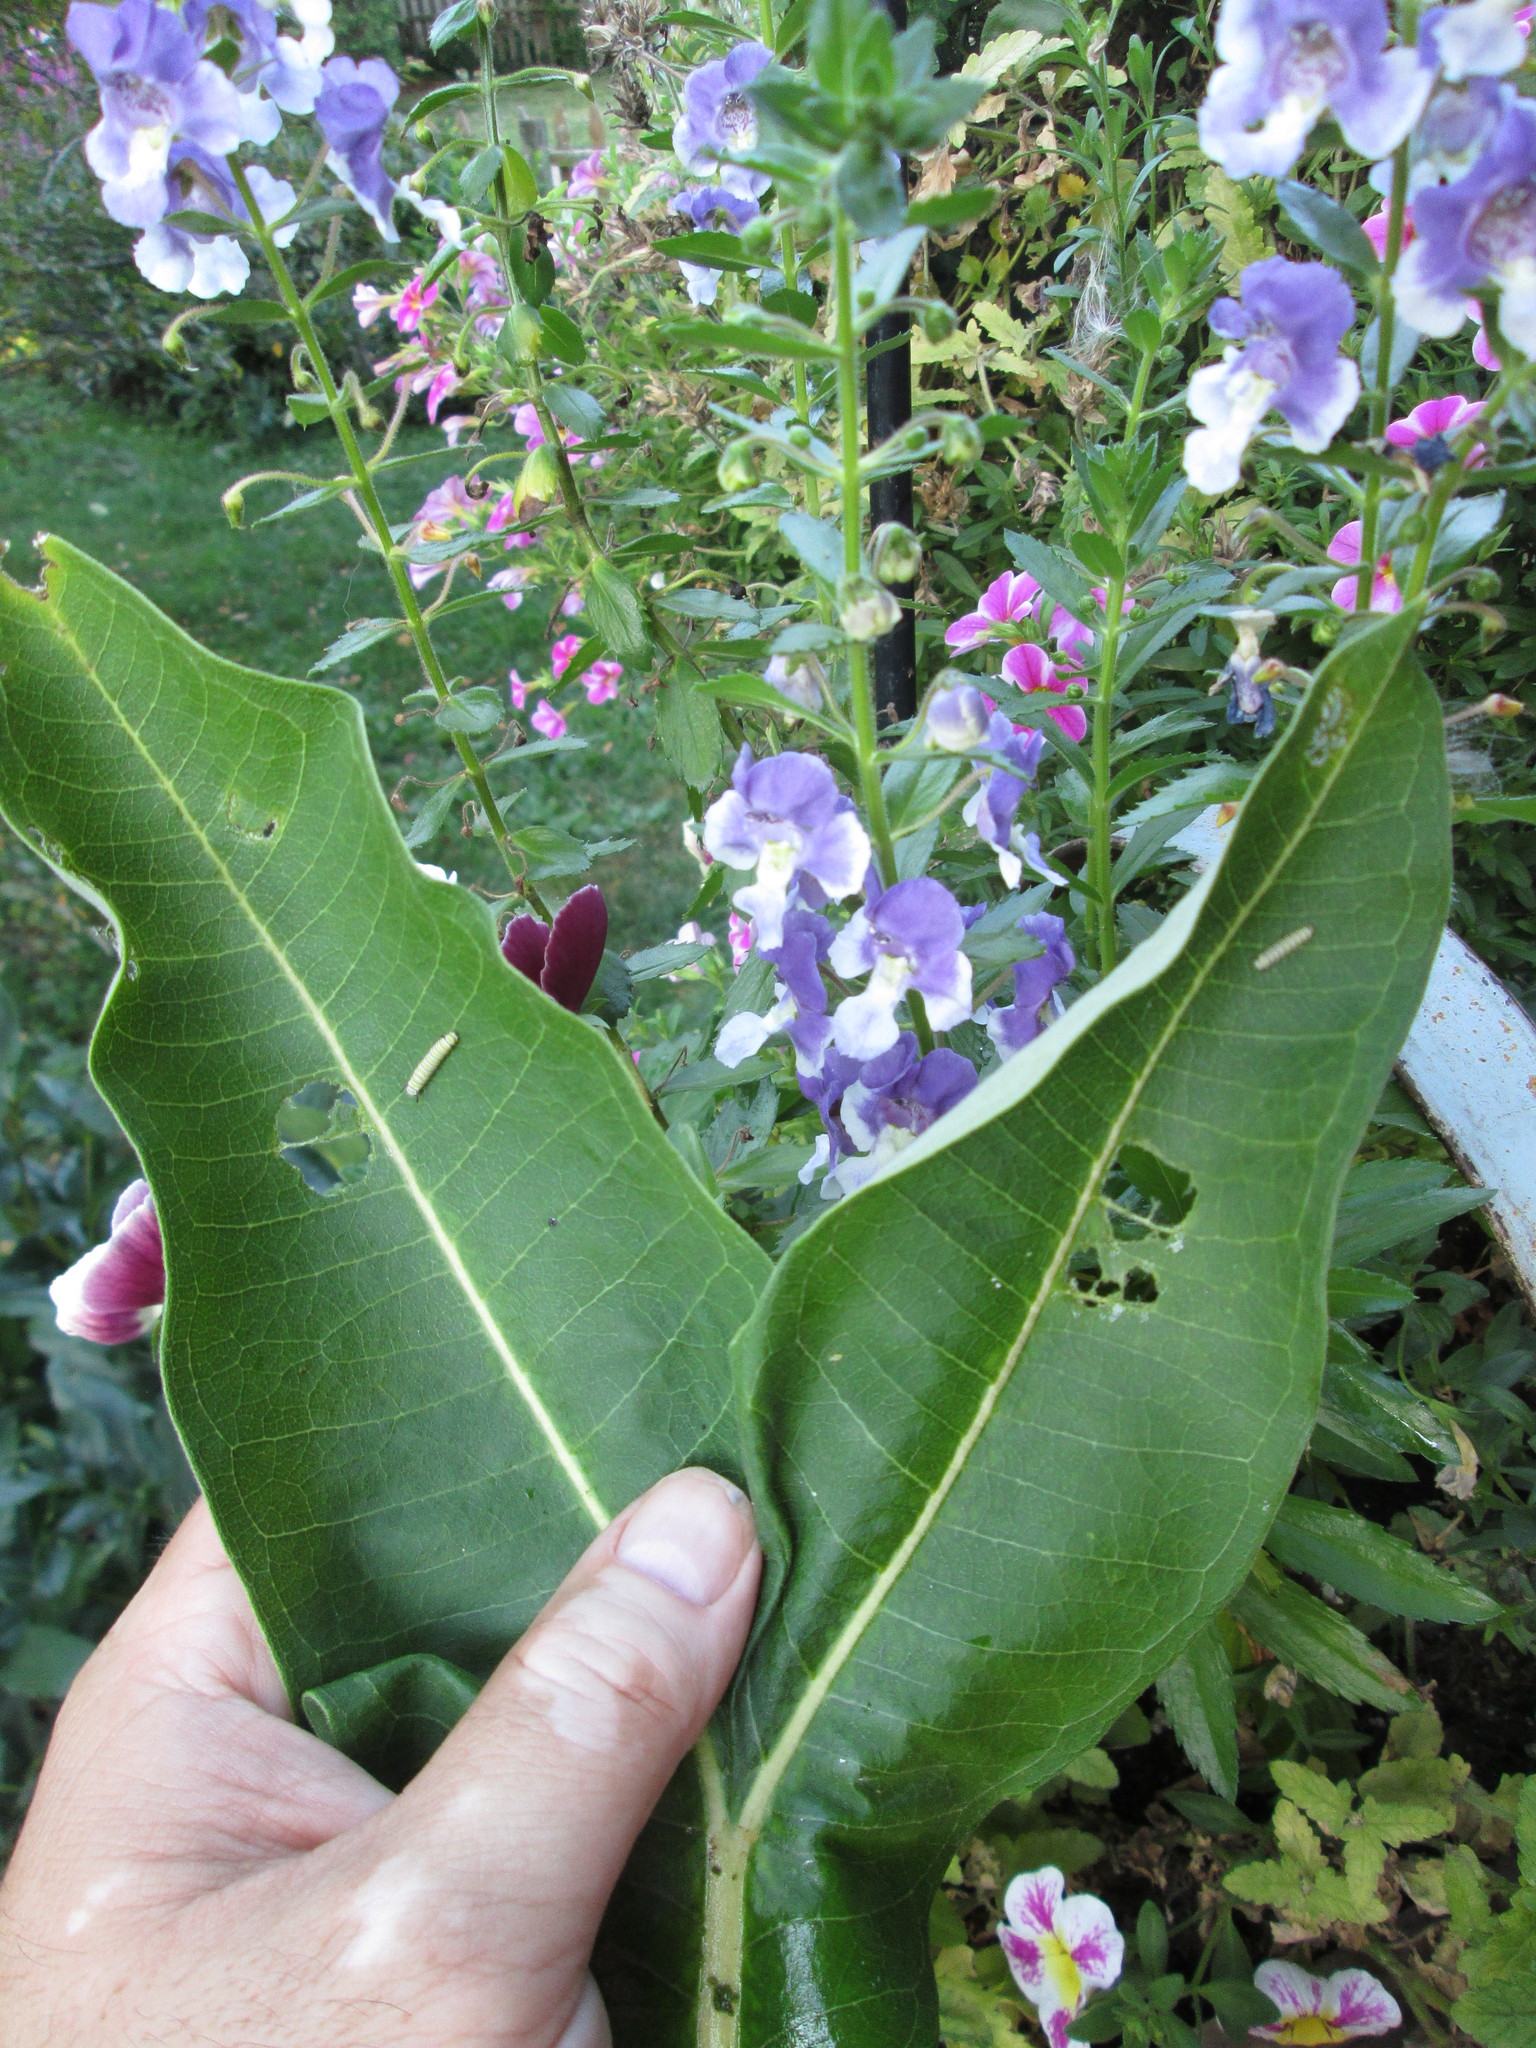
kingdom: Plantae
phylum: Tracheophyta
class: Magnoliopsida
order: Gentianales
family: Apocynaceae
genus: Asclepias
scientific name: Asclepias syriaca
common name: Common milkweed
